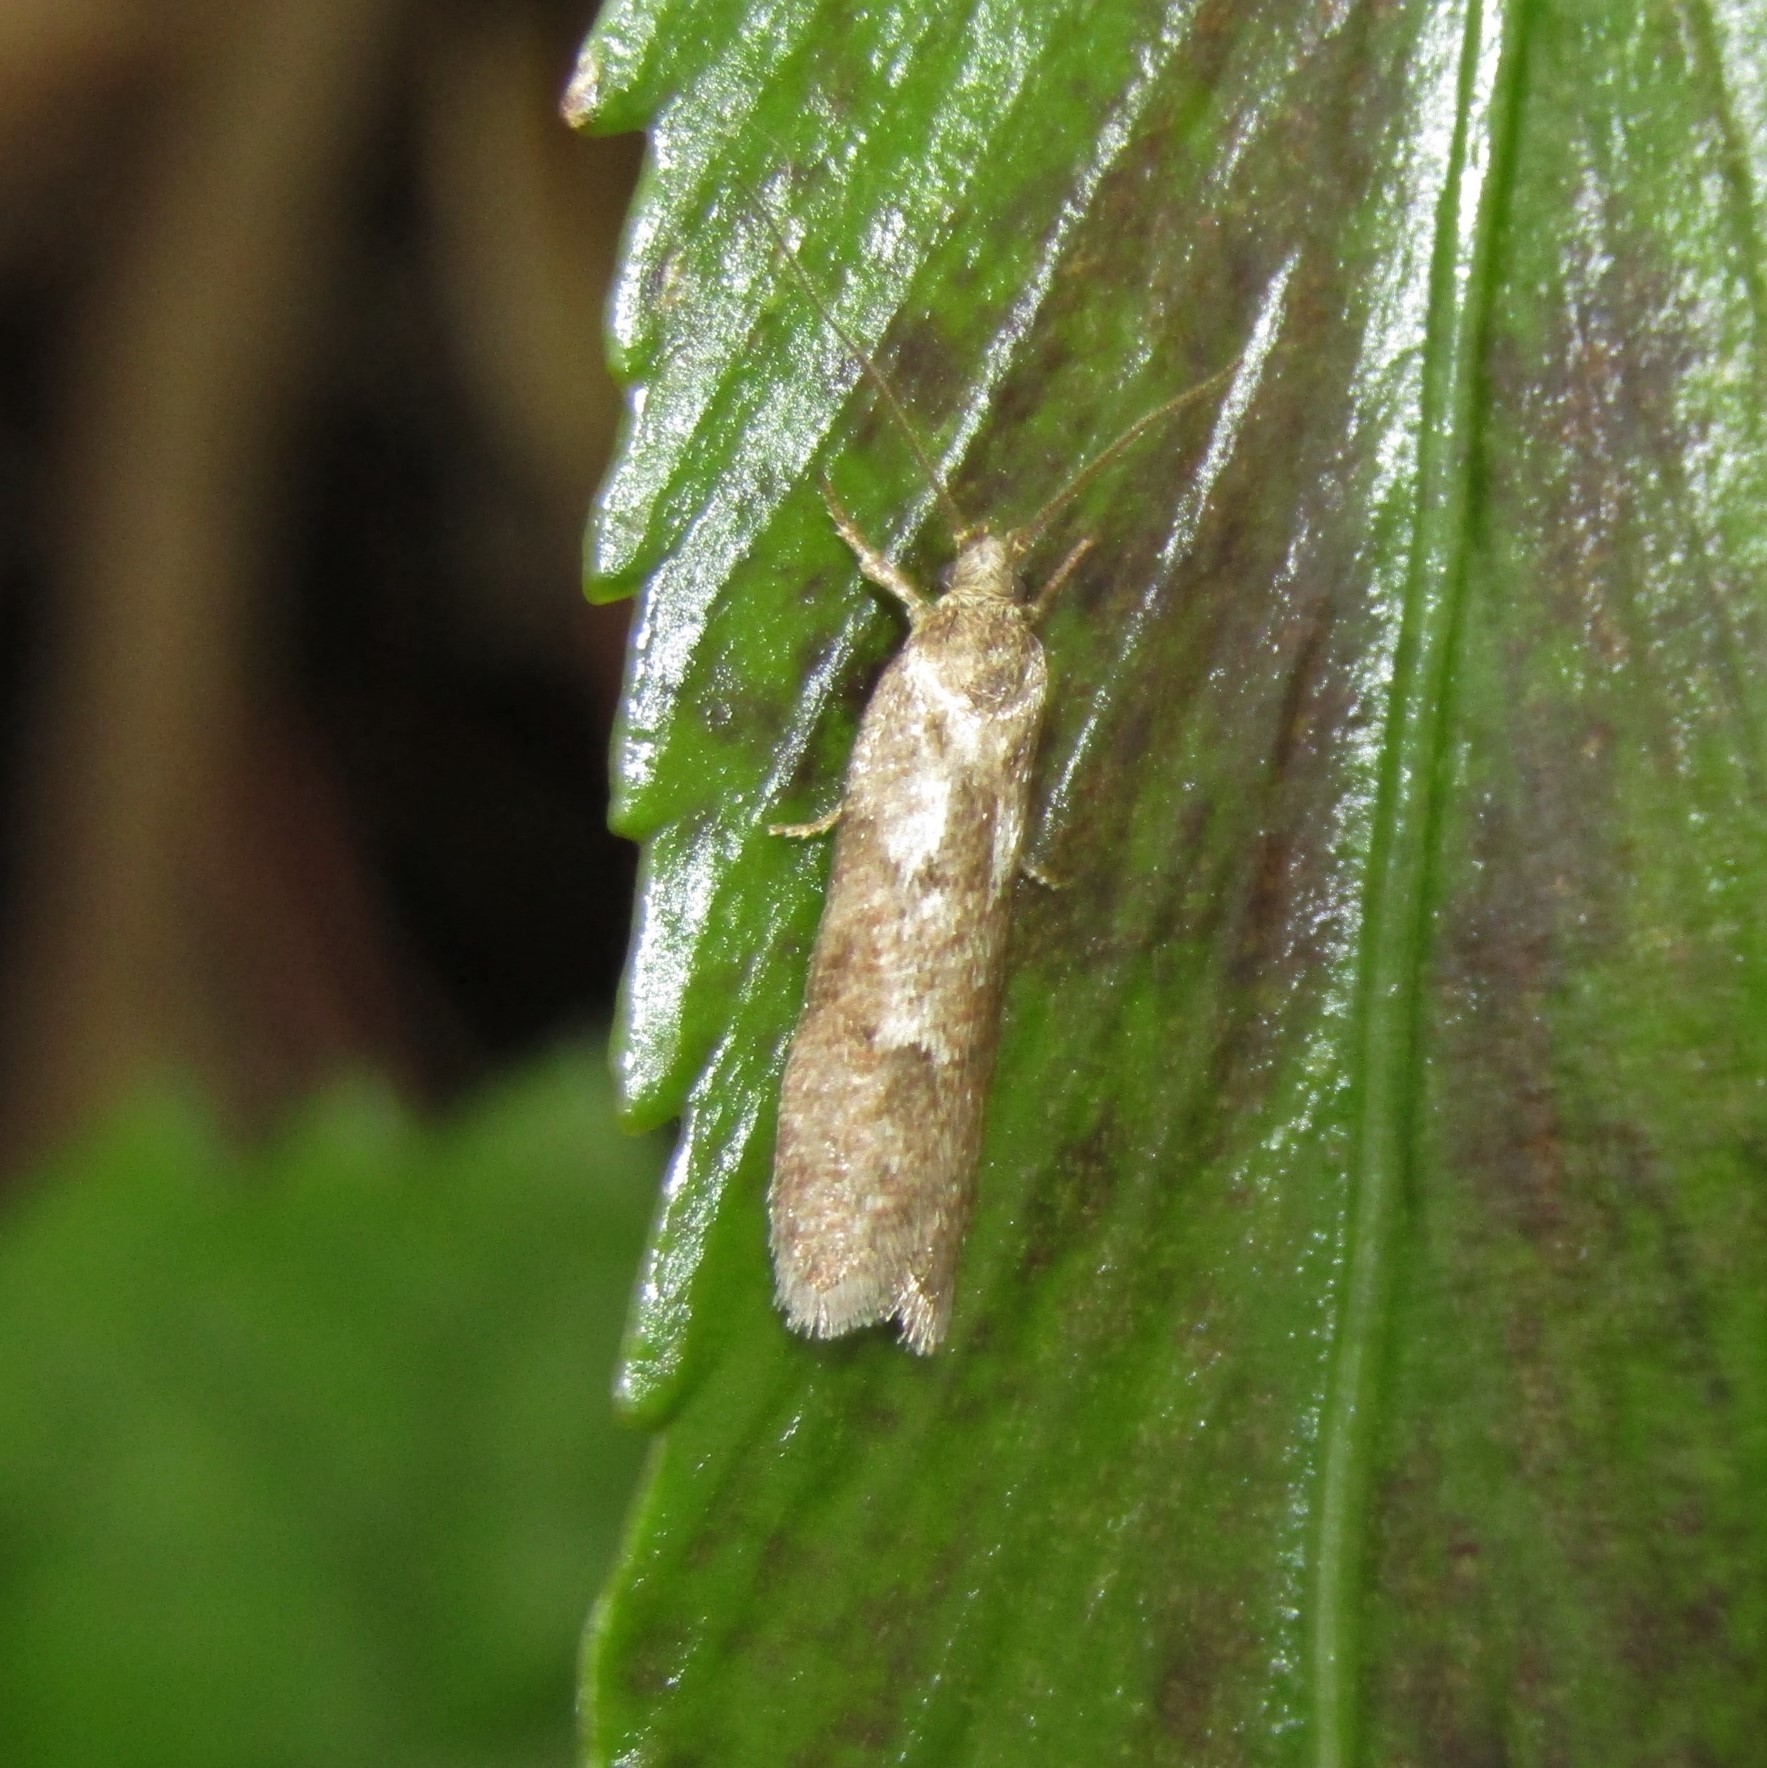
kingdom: Animalia
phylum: Arthropoda
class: Insecta
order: Lepidoptera
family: Oecophoridae
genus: Chersadaula
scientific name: Chersadaula ochrogastra
